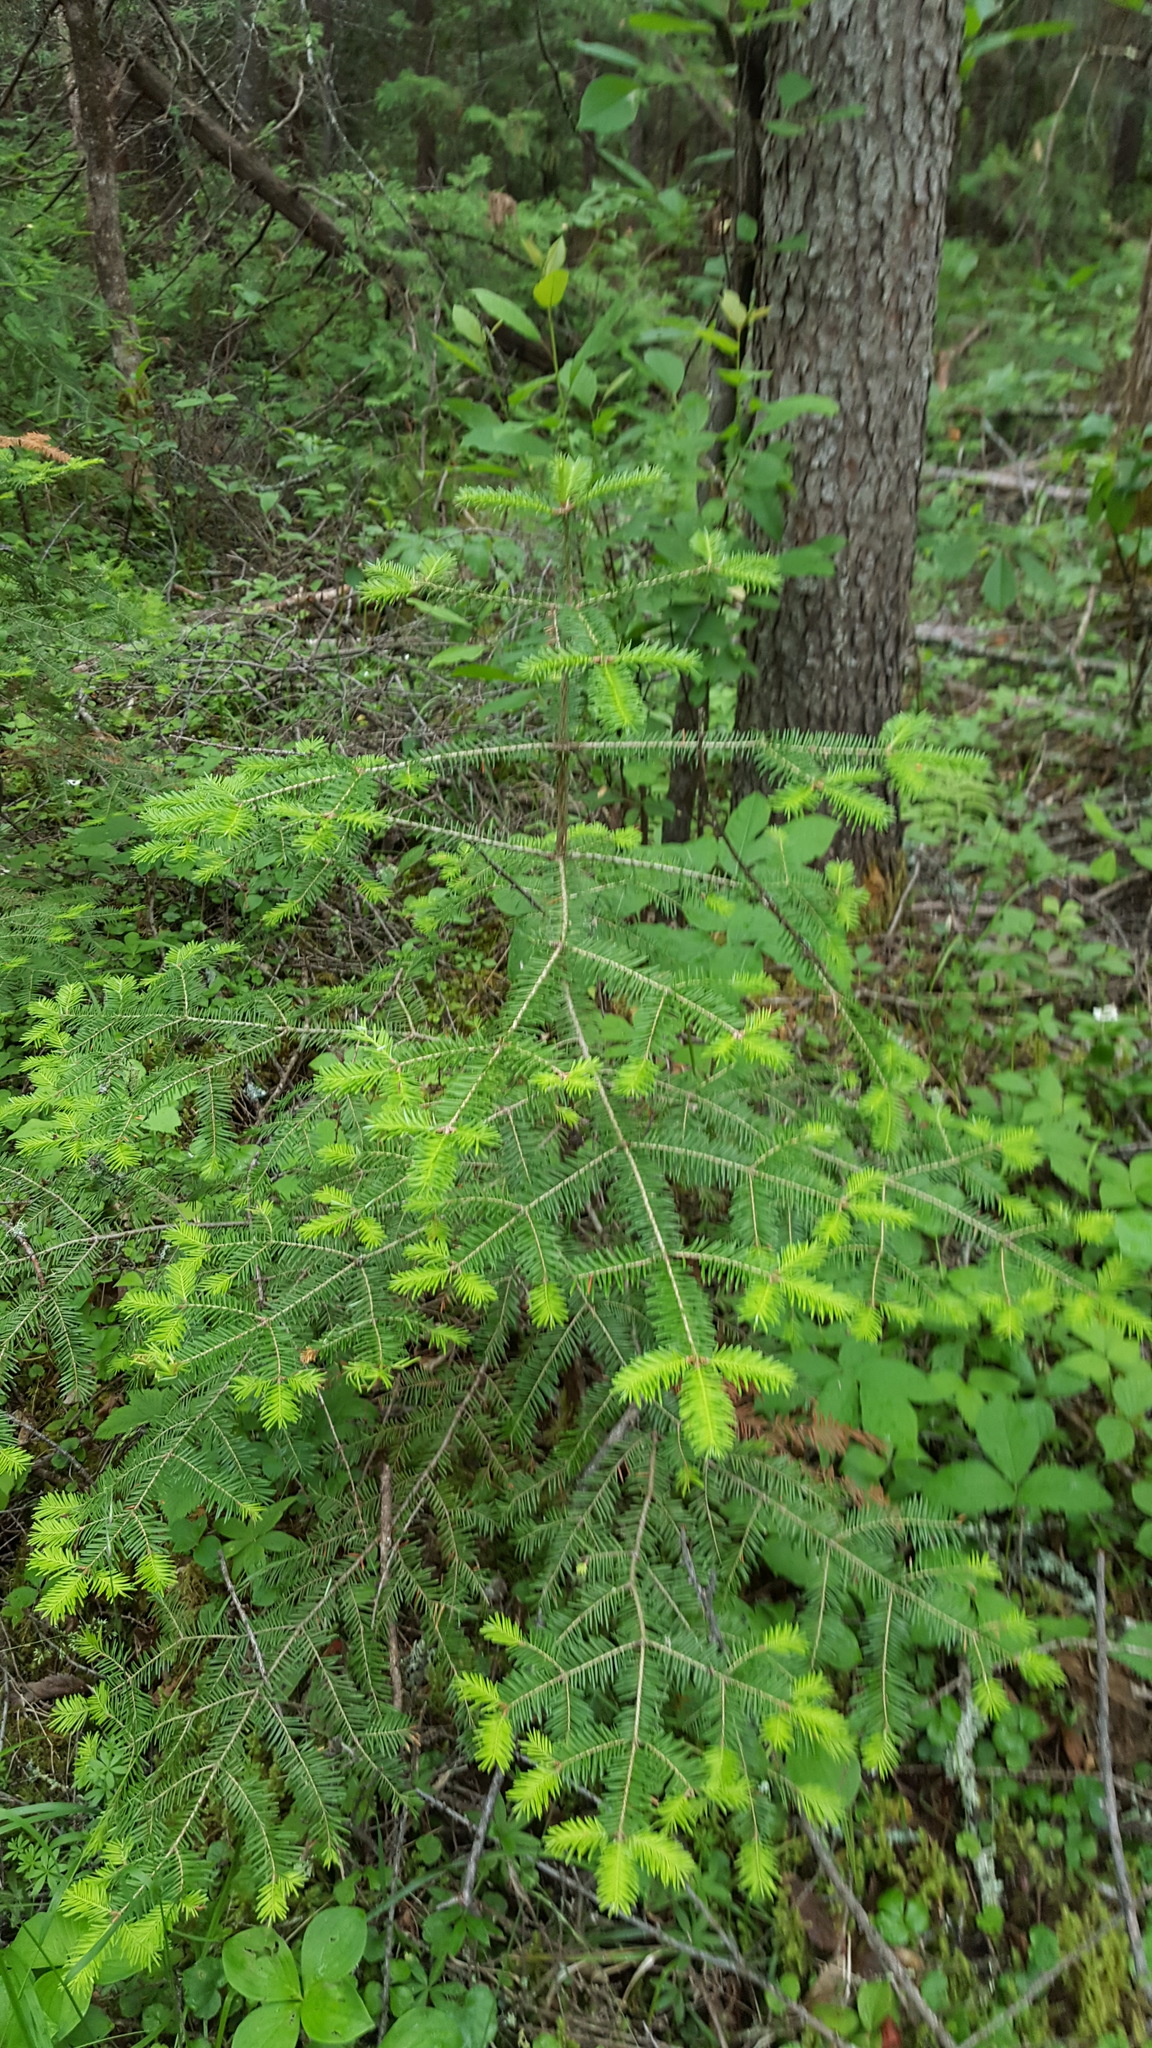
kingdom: Plantae
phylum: Tracheophyta
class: Pinopsida
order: Pinales
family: Pinaceae
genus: Abies
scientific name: Abies balsamea
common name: Balsam fir
